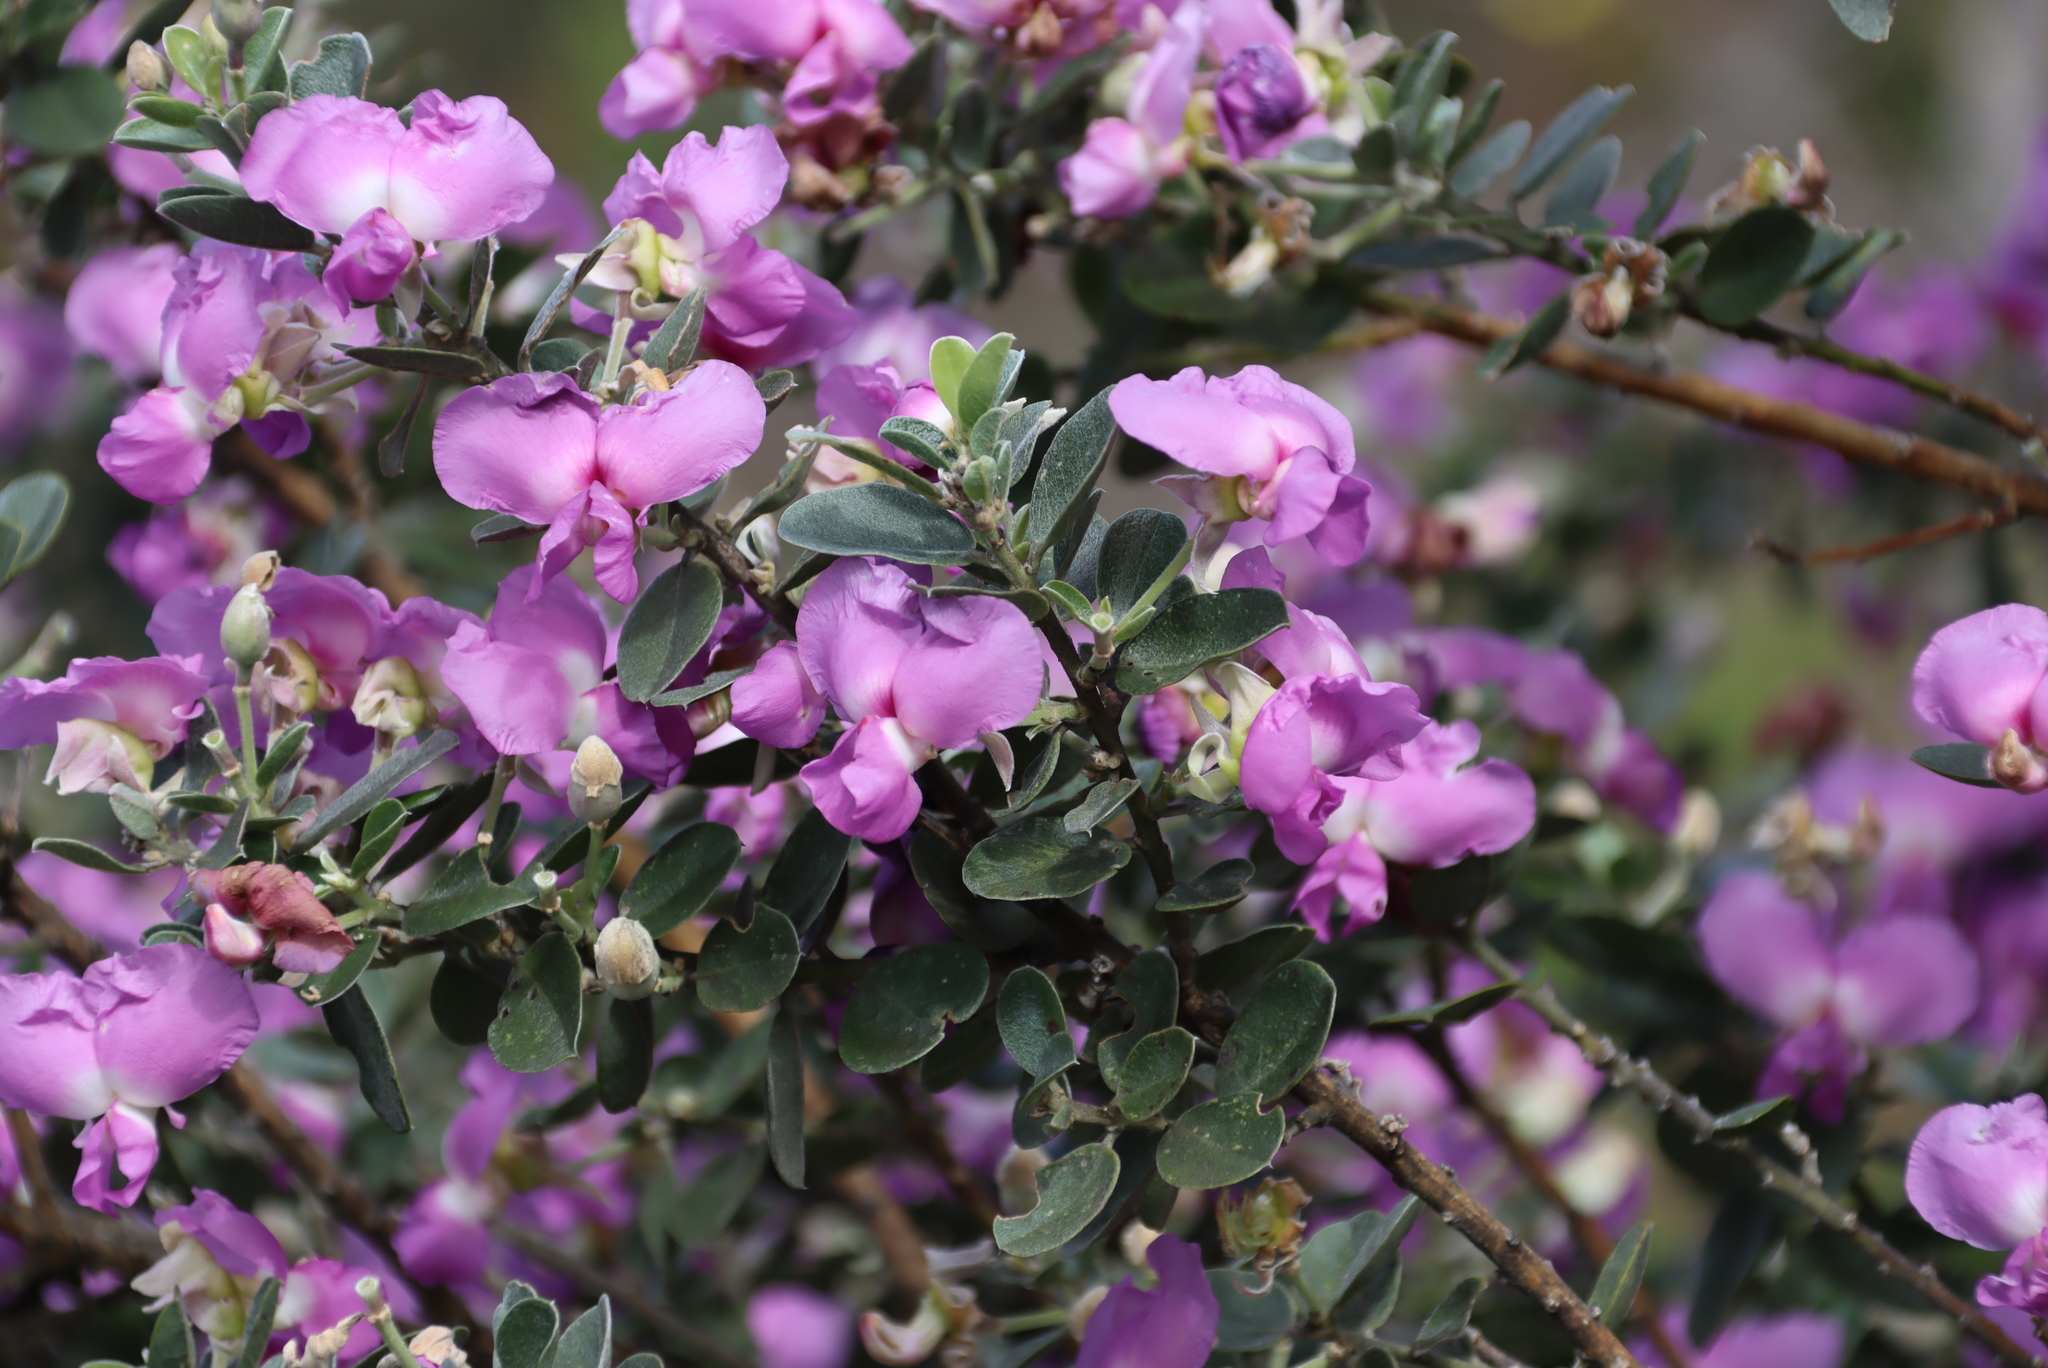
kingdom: Plantae
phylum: Tracheophyta
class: Magnoliopsida
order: Fabales
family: Fabaceae
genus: Podalyria
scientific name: Podalyria calyptrata
